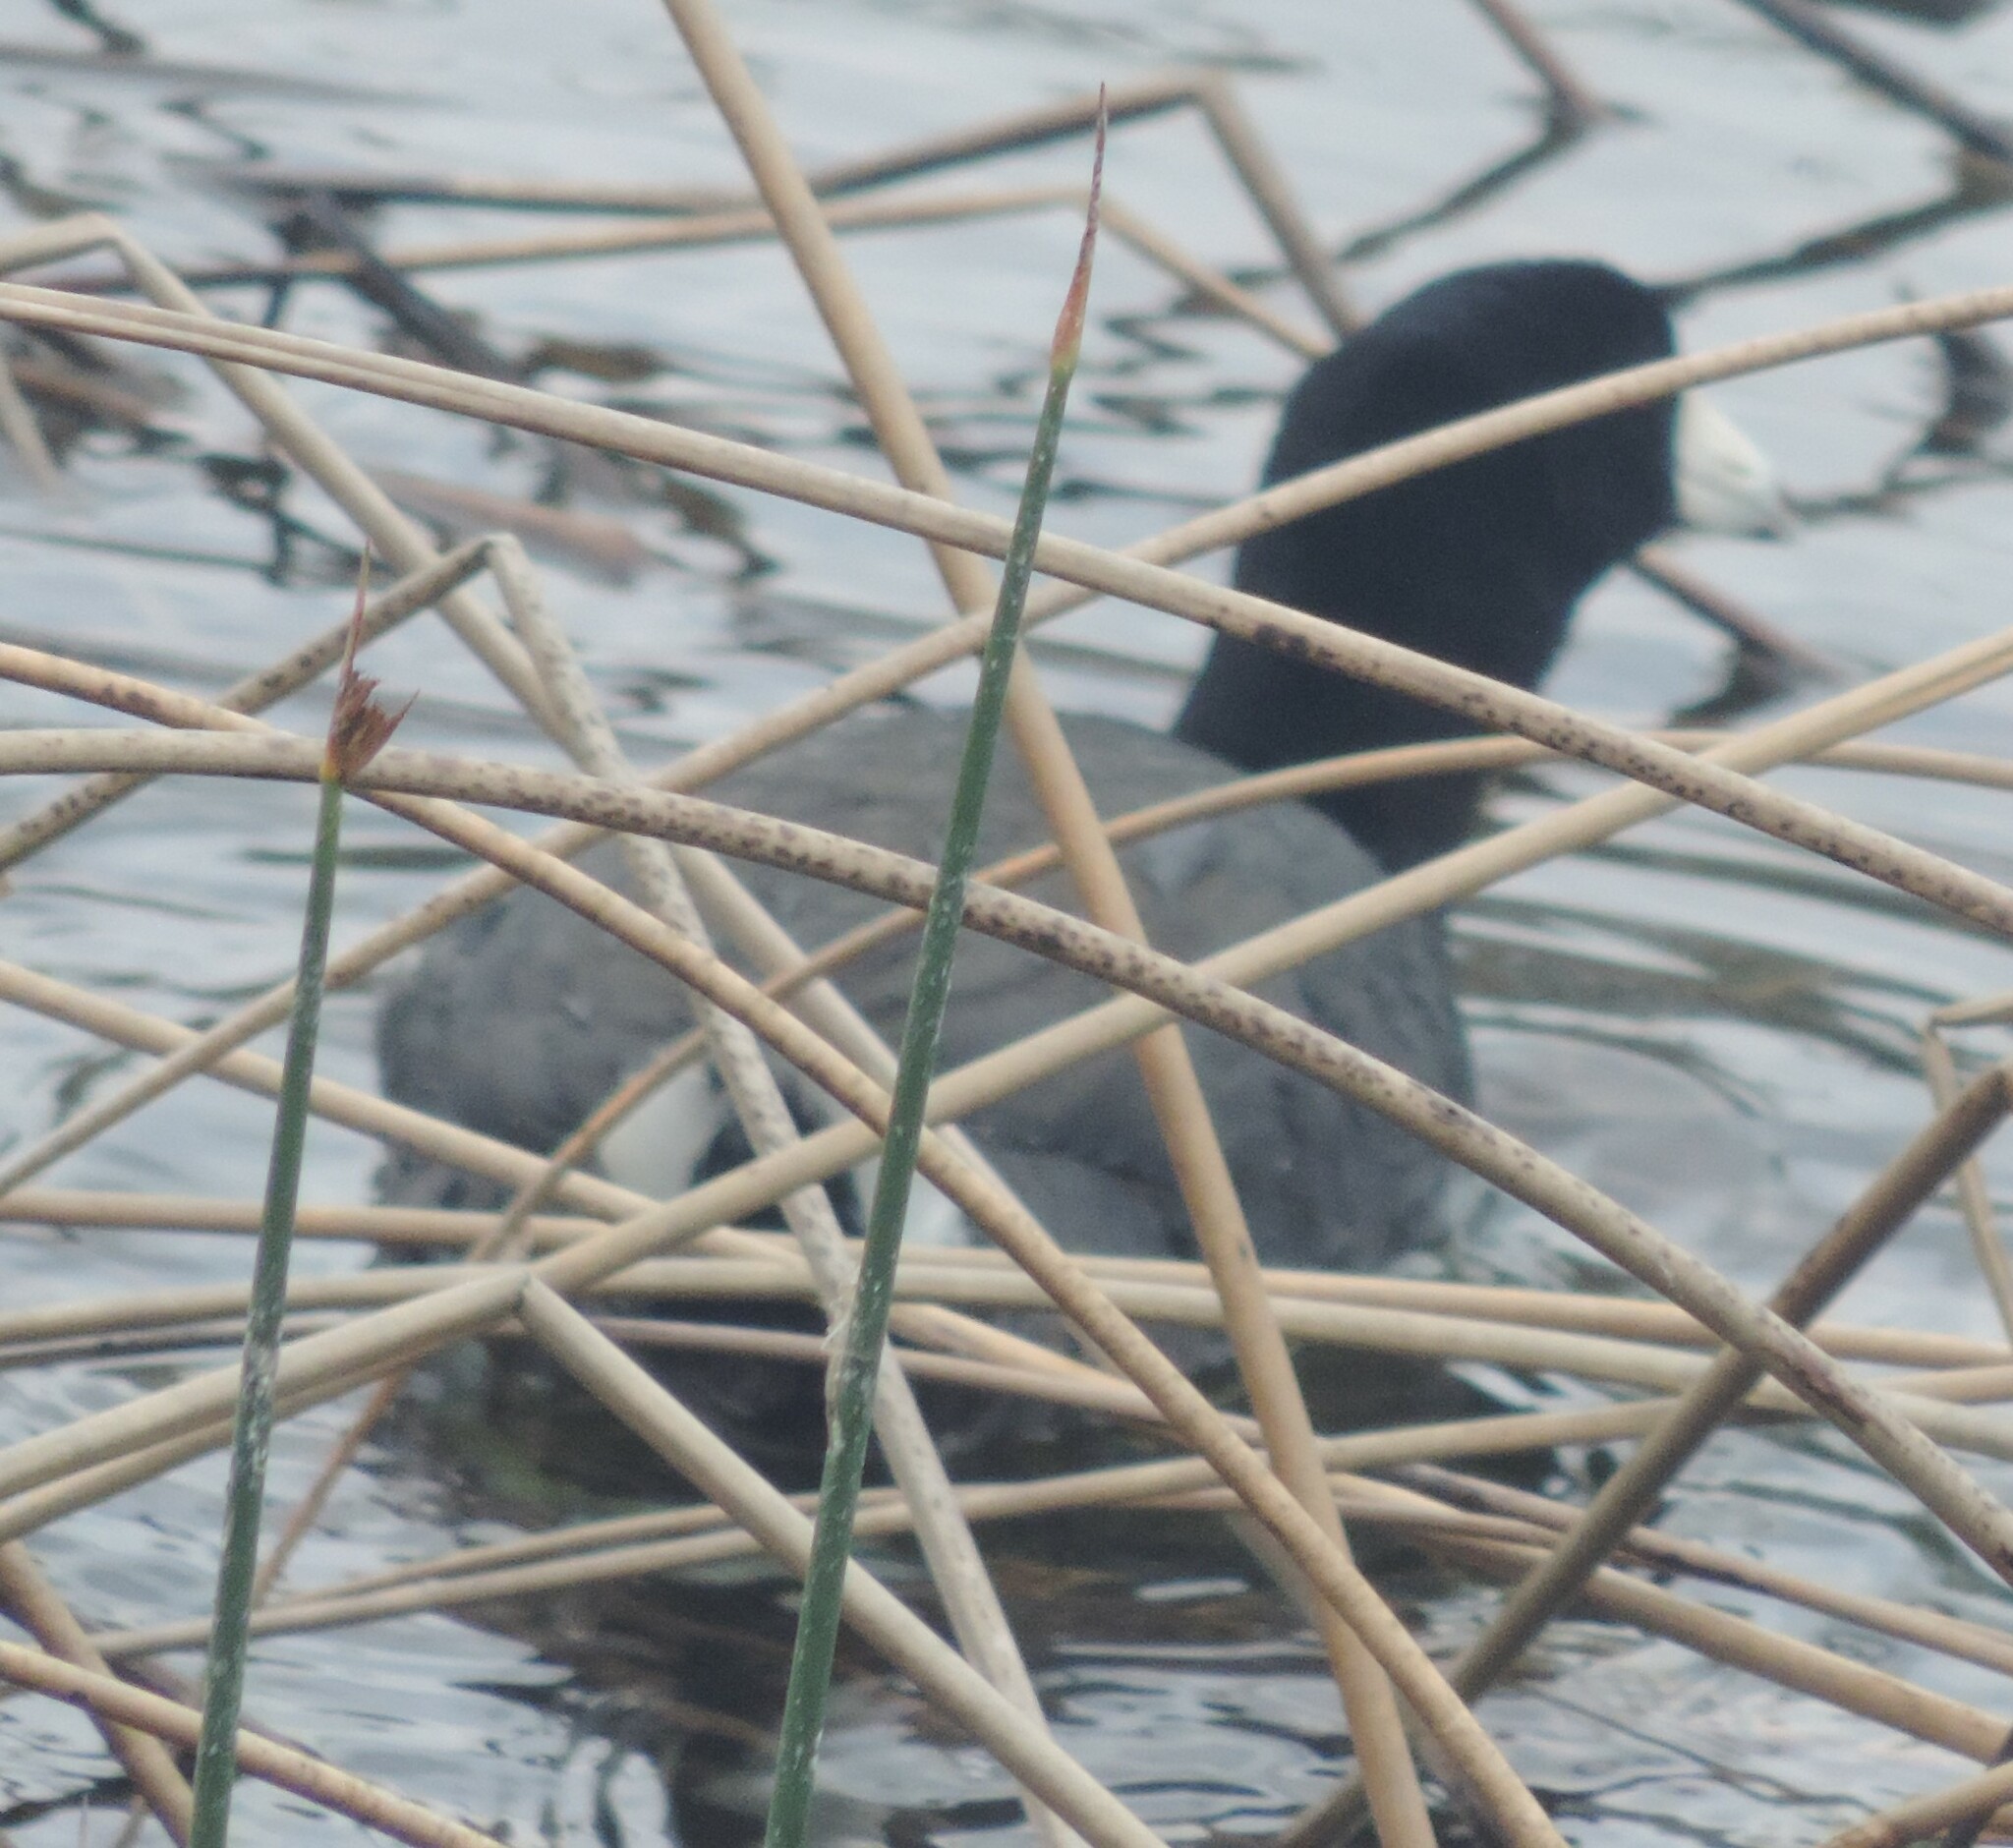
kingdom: Animalia
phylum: Chordata
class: Aves
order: Gruiformes
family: Rallidae
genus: Fulica
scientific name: Fulica americana
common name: American coot
